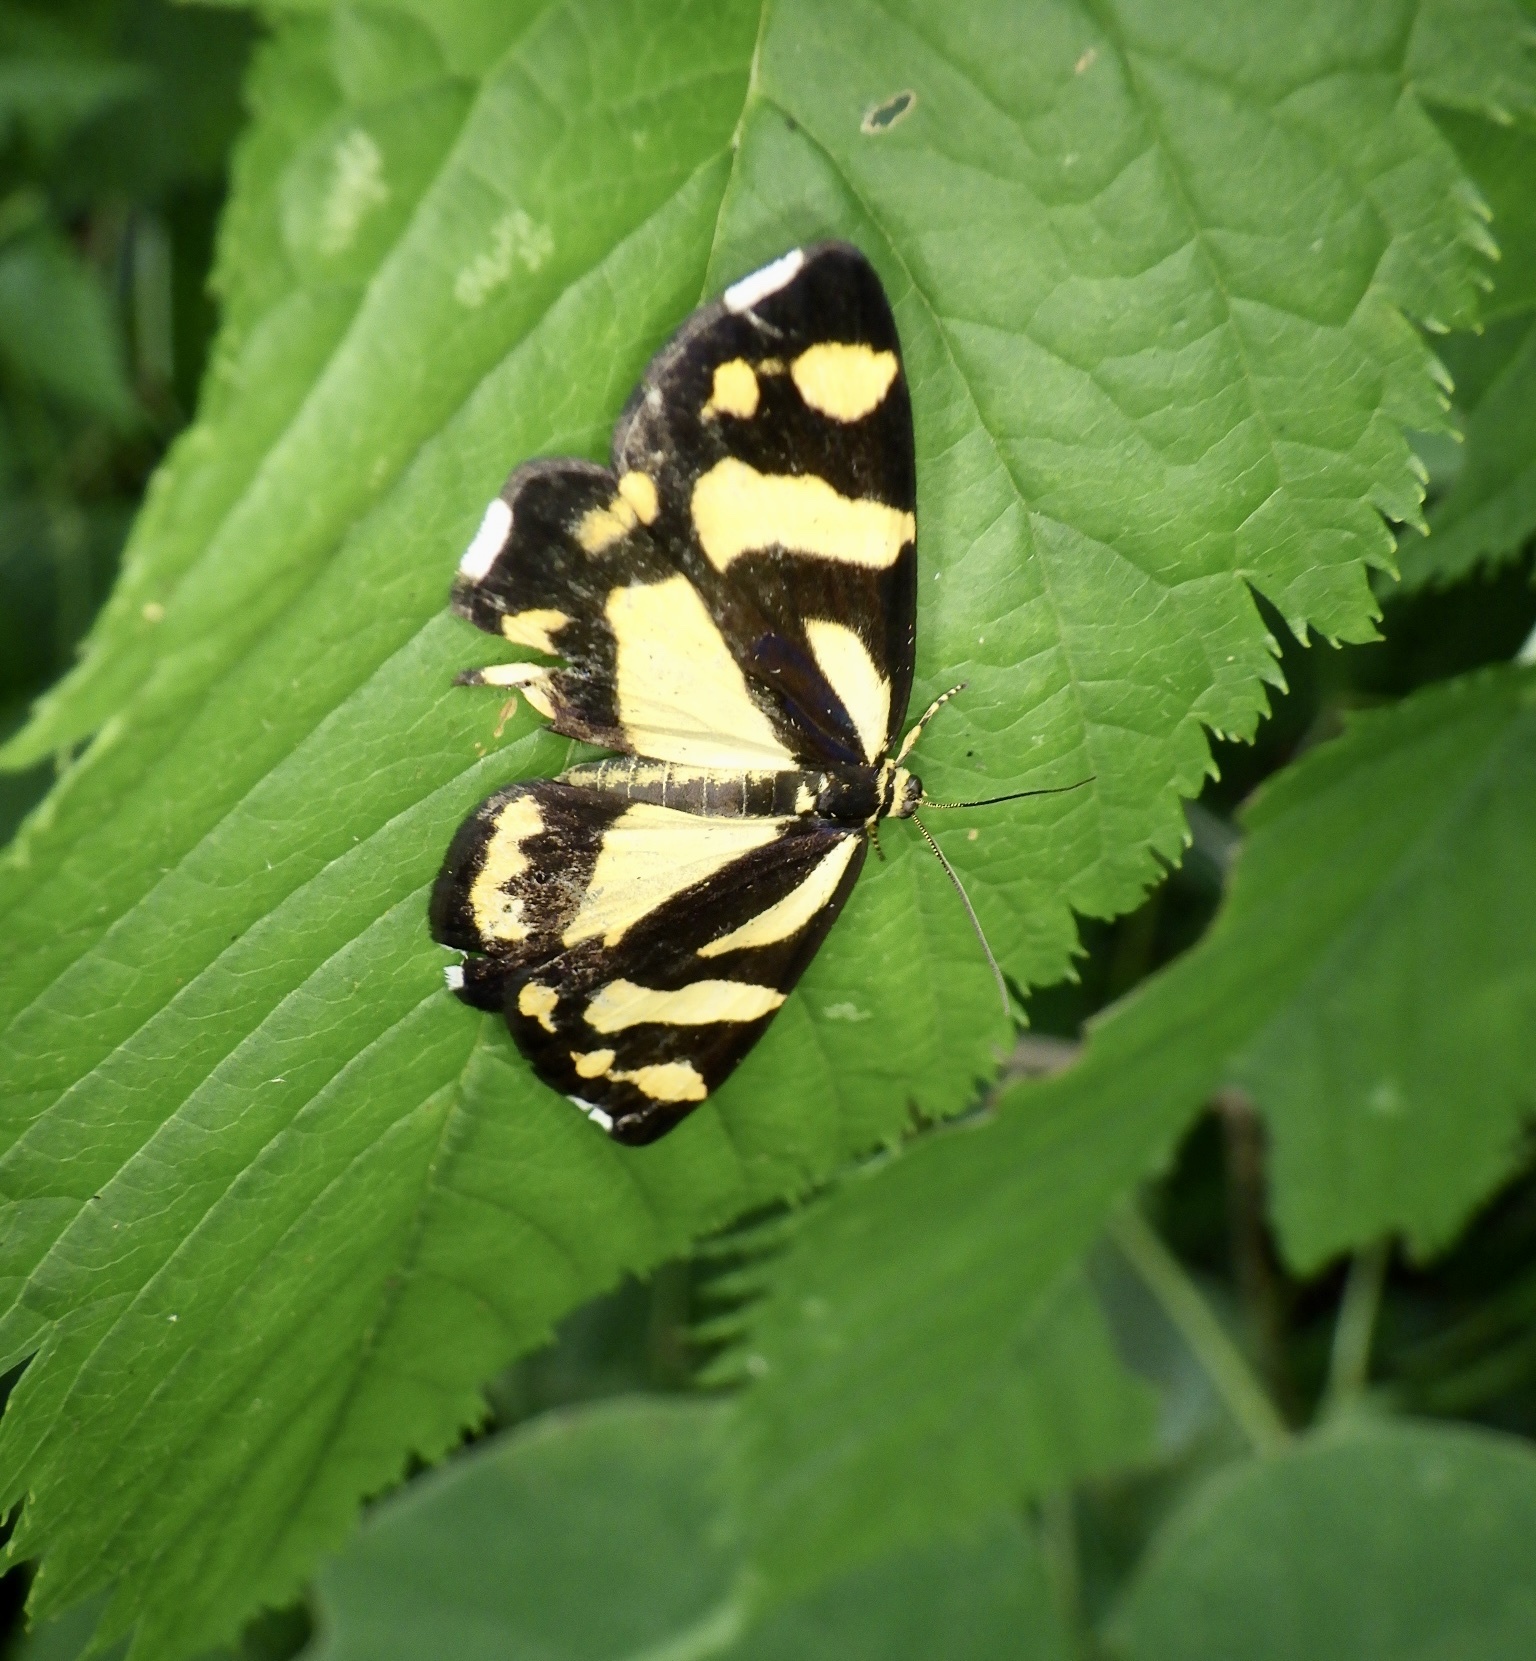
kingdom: Animalia
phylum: Arthropoda
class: Insecta
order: Lepidoptera
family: Epicopeiidae
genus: Psychostrophia
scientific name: Psychostrophia melanargia
